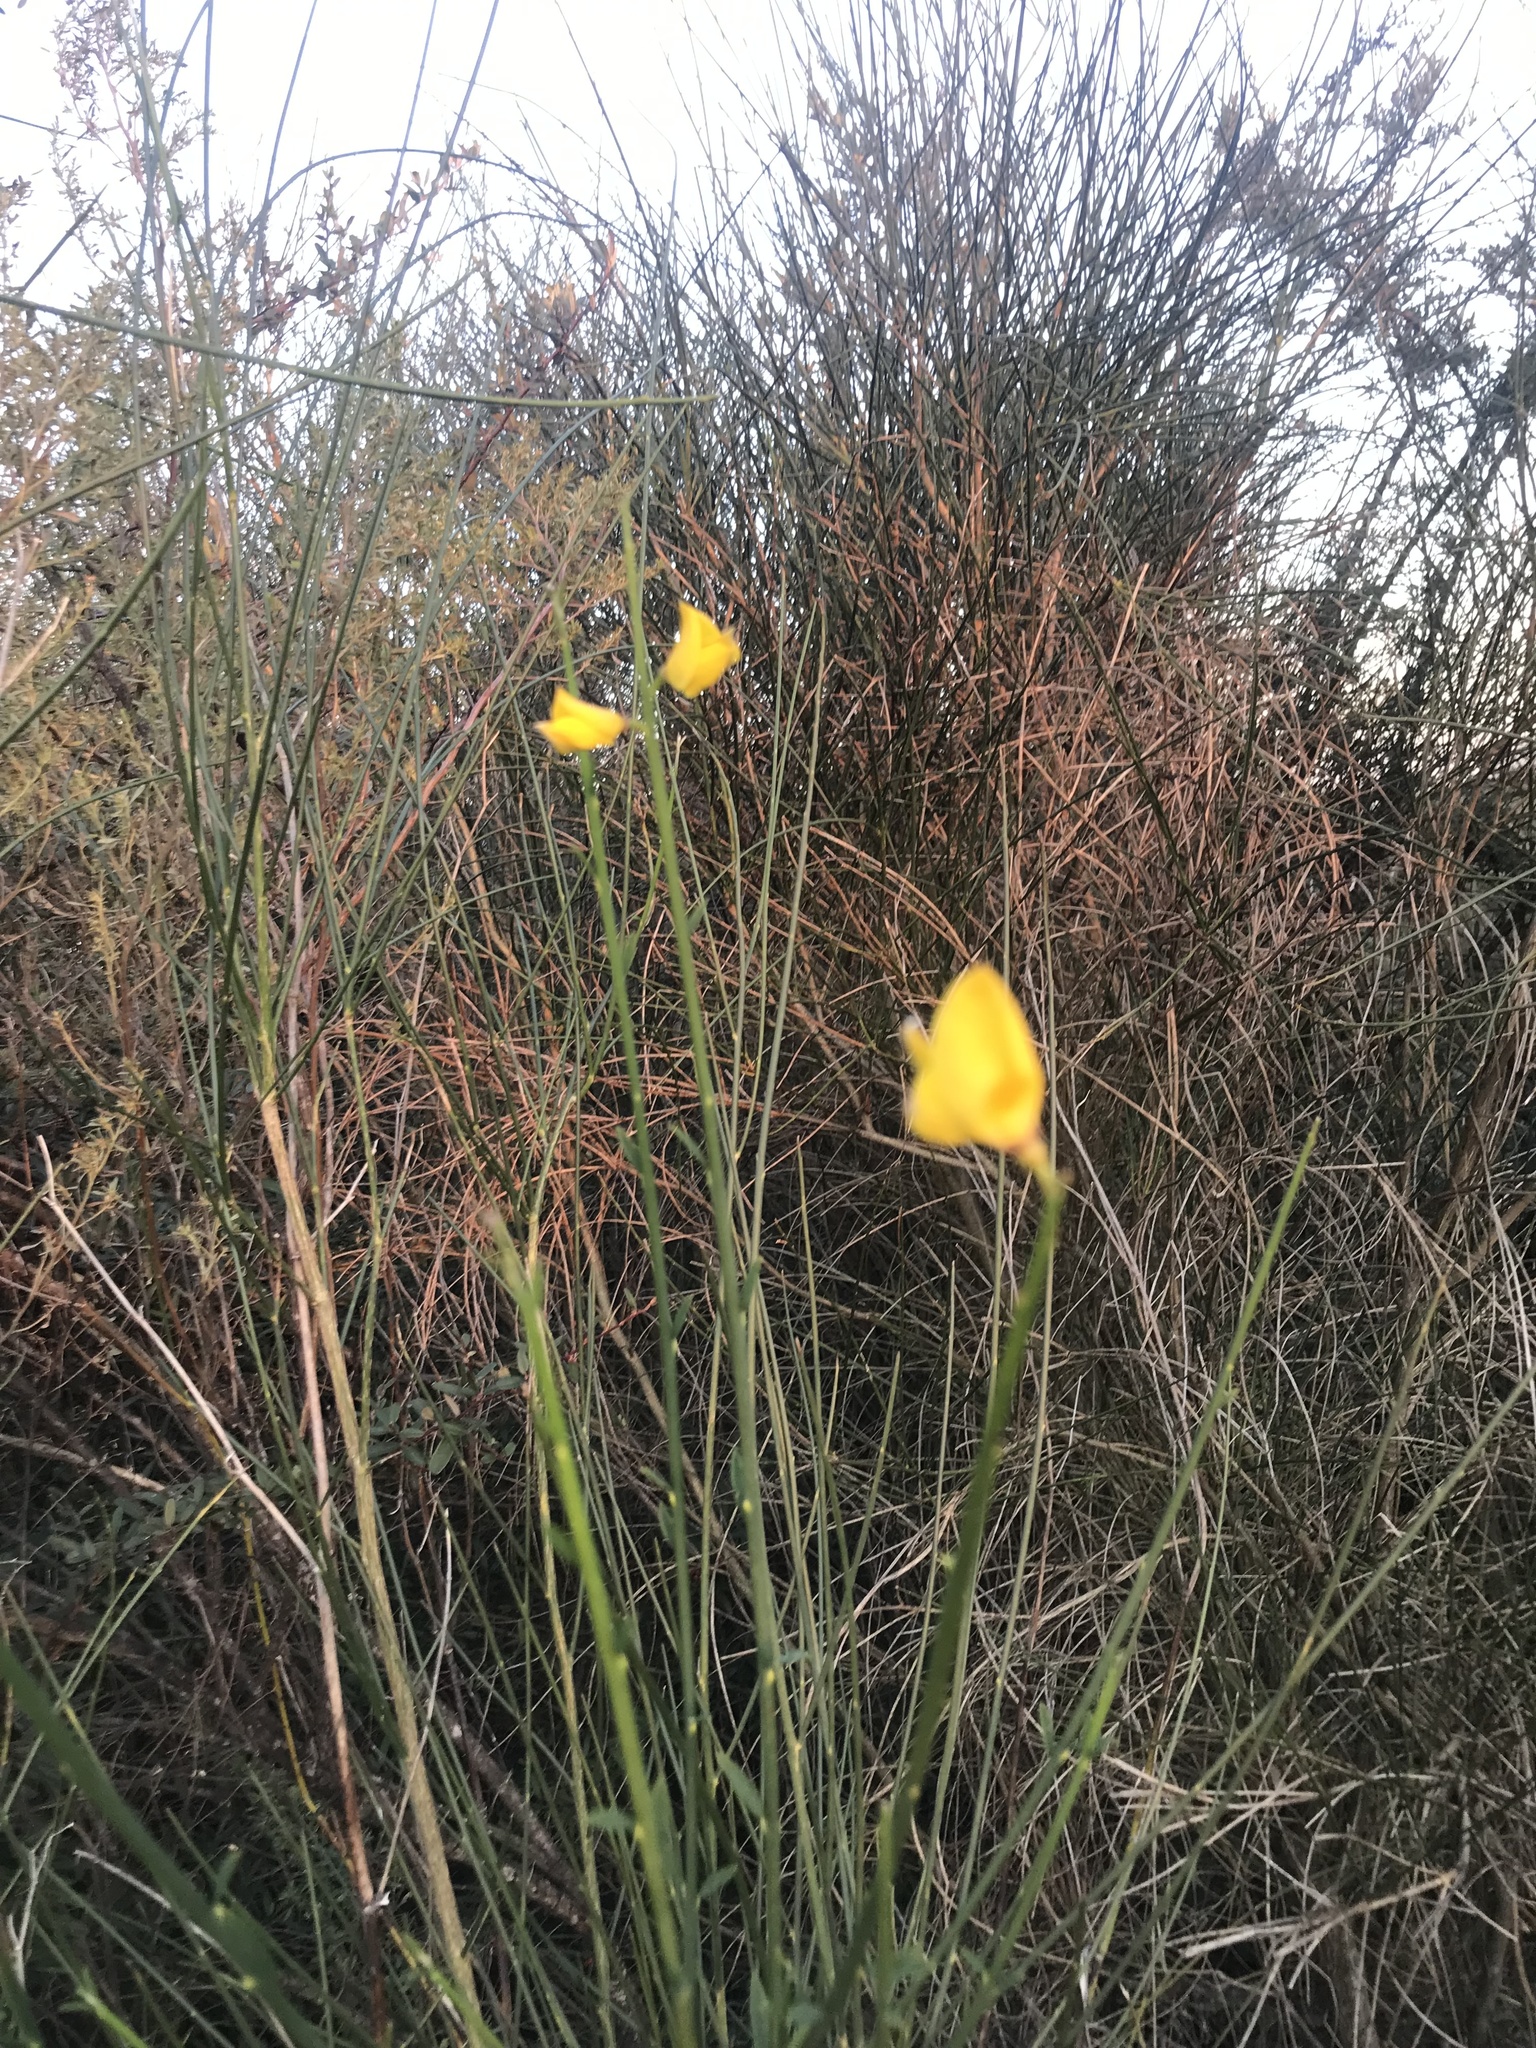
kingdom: Plantae
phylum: Tracheophyta
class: Magnoliopsida
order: Fabales
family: Fabaceae
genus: Spartium
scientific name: Spartium junceum
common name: Spanish broom
